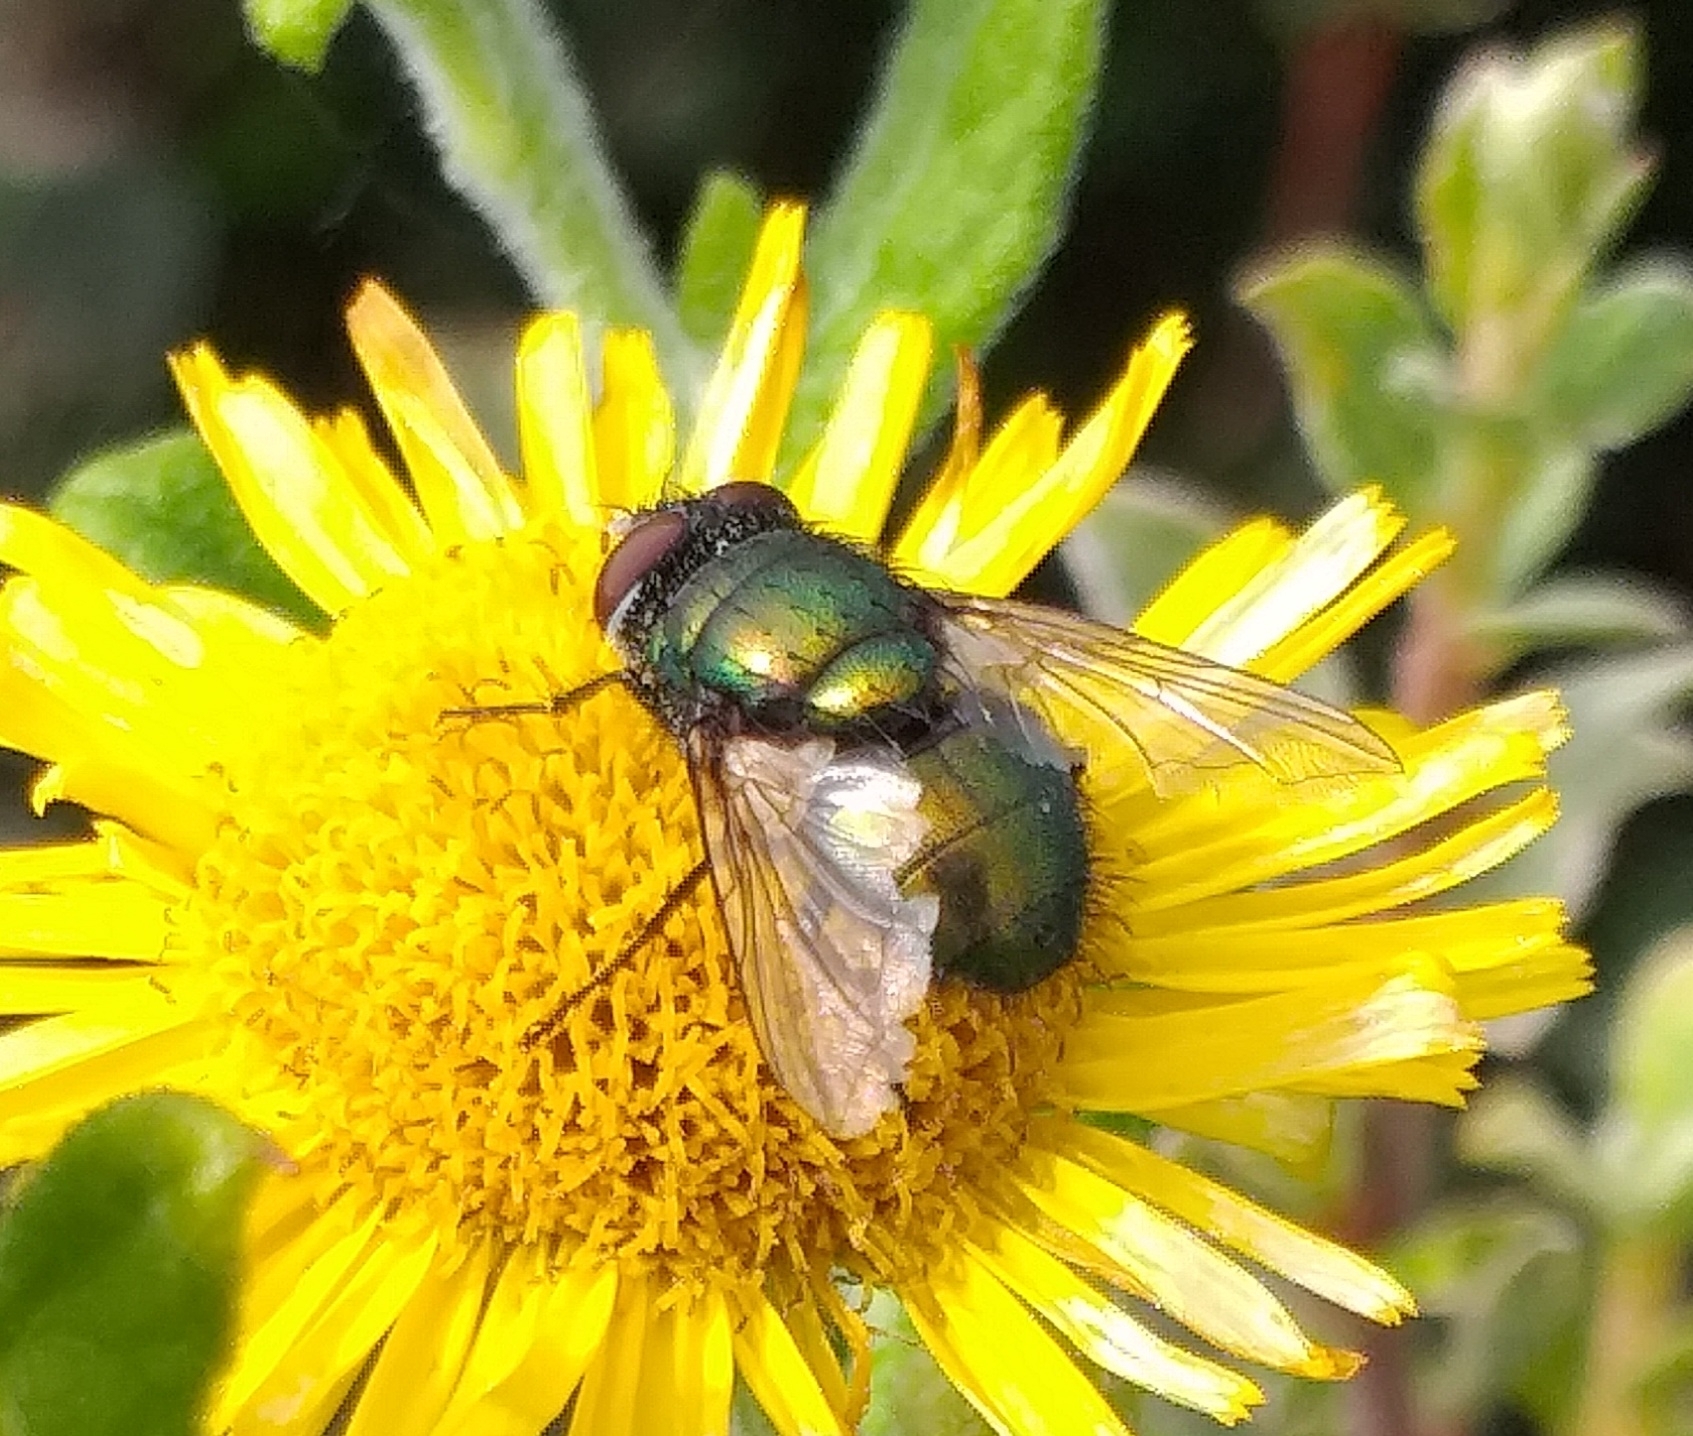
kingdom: Animalia
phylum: Arthropoda
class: Insecta
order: Diptera
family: Calliphoridae
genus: Lucilia
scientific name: Lucilia
